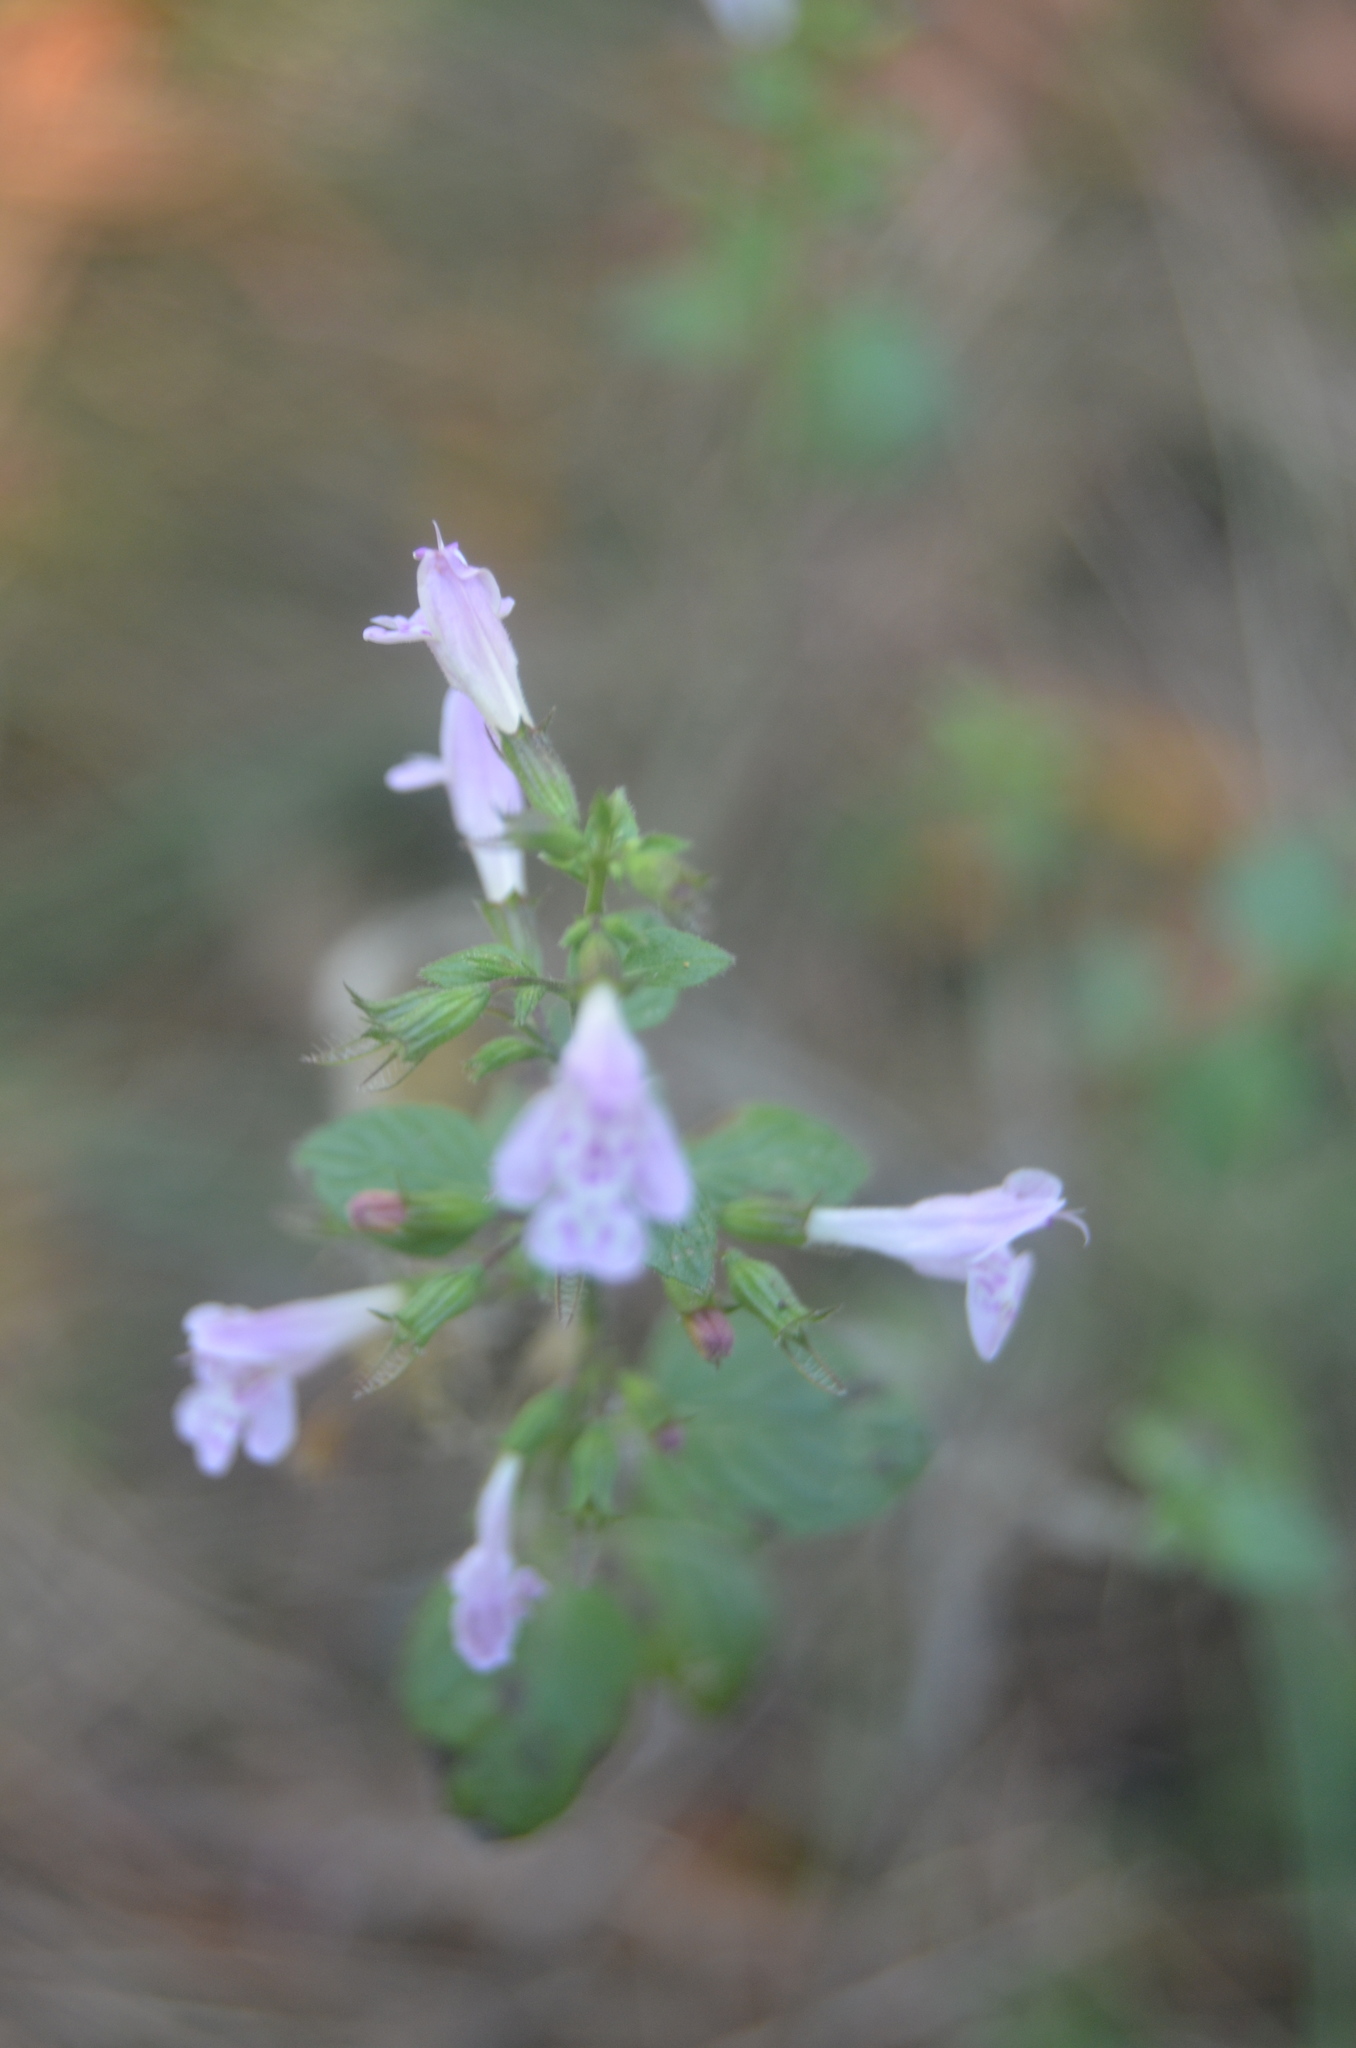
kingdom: Plantae
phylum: Tracheophyta
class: Magnoliopsida
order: Lamiales
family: Lamiaceae
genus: Clinopodium
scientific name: Clinopodium nepeta
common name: Lesser calamint
